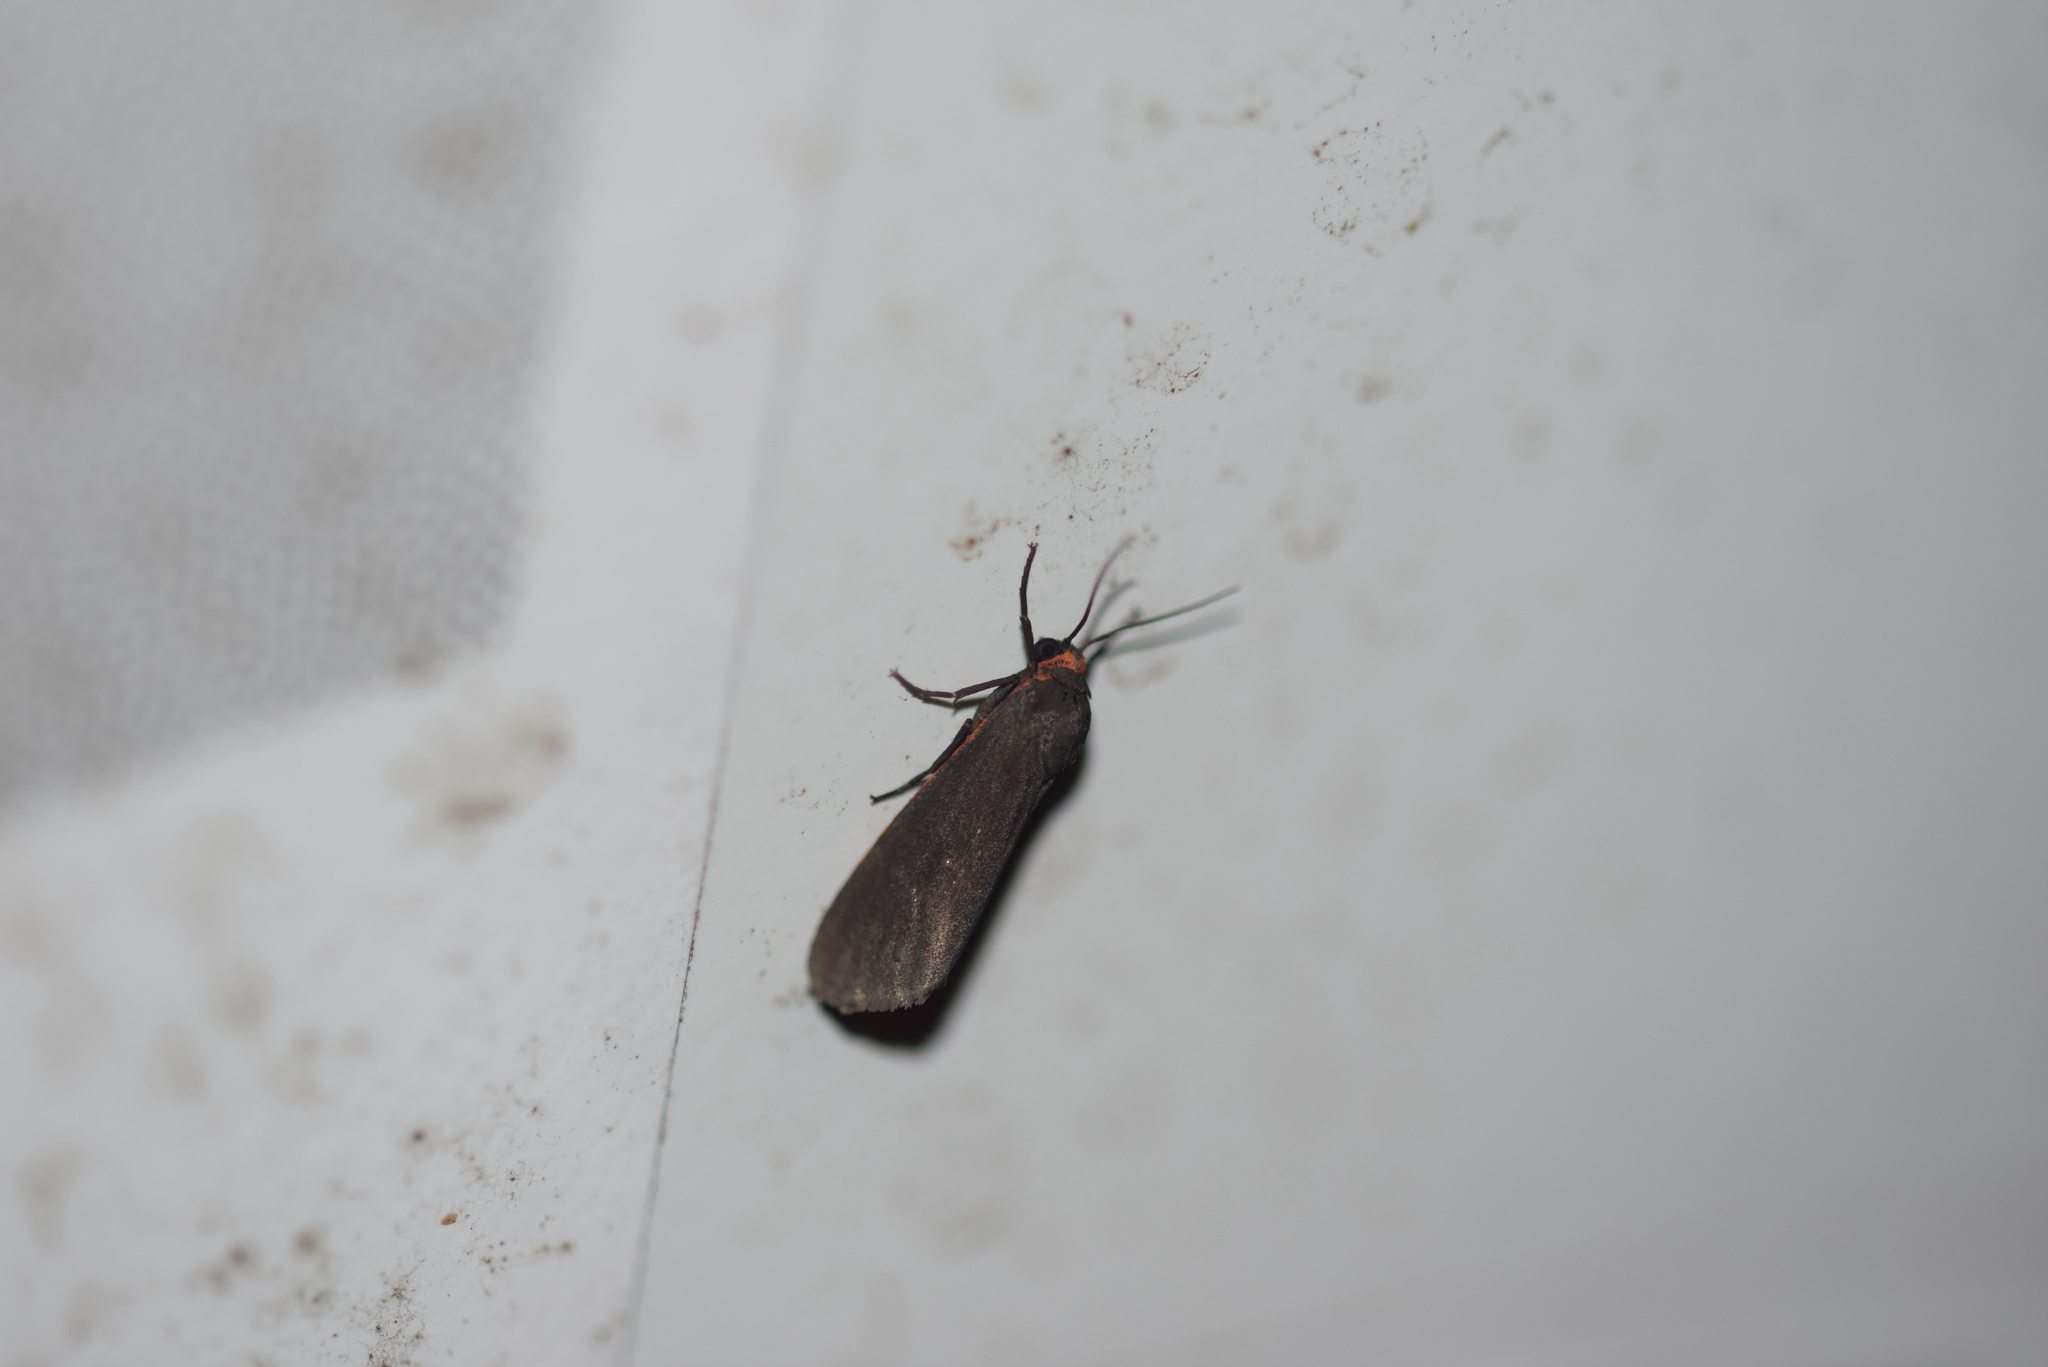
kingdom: Animalia
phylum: Arthropoda
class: Insecta
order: Lepidoptera
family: Erebidae
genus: Virbia
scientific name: Virbia laeta
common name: Joyful holomelina moth
